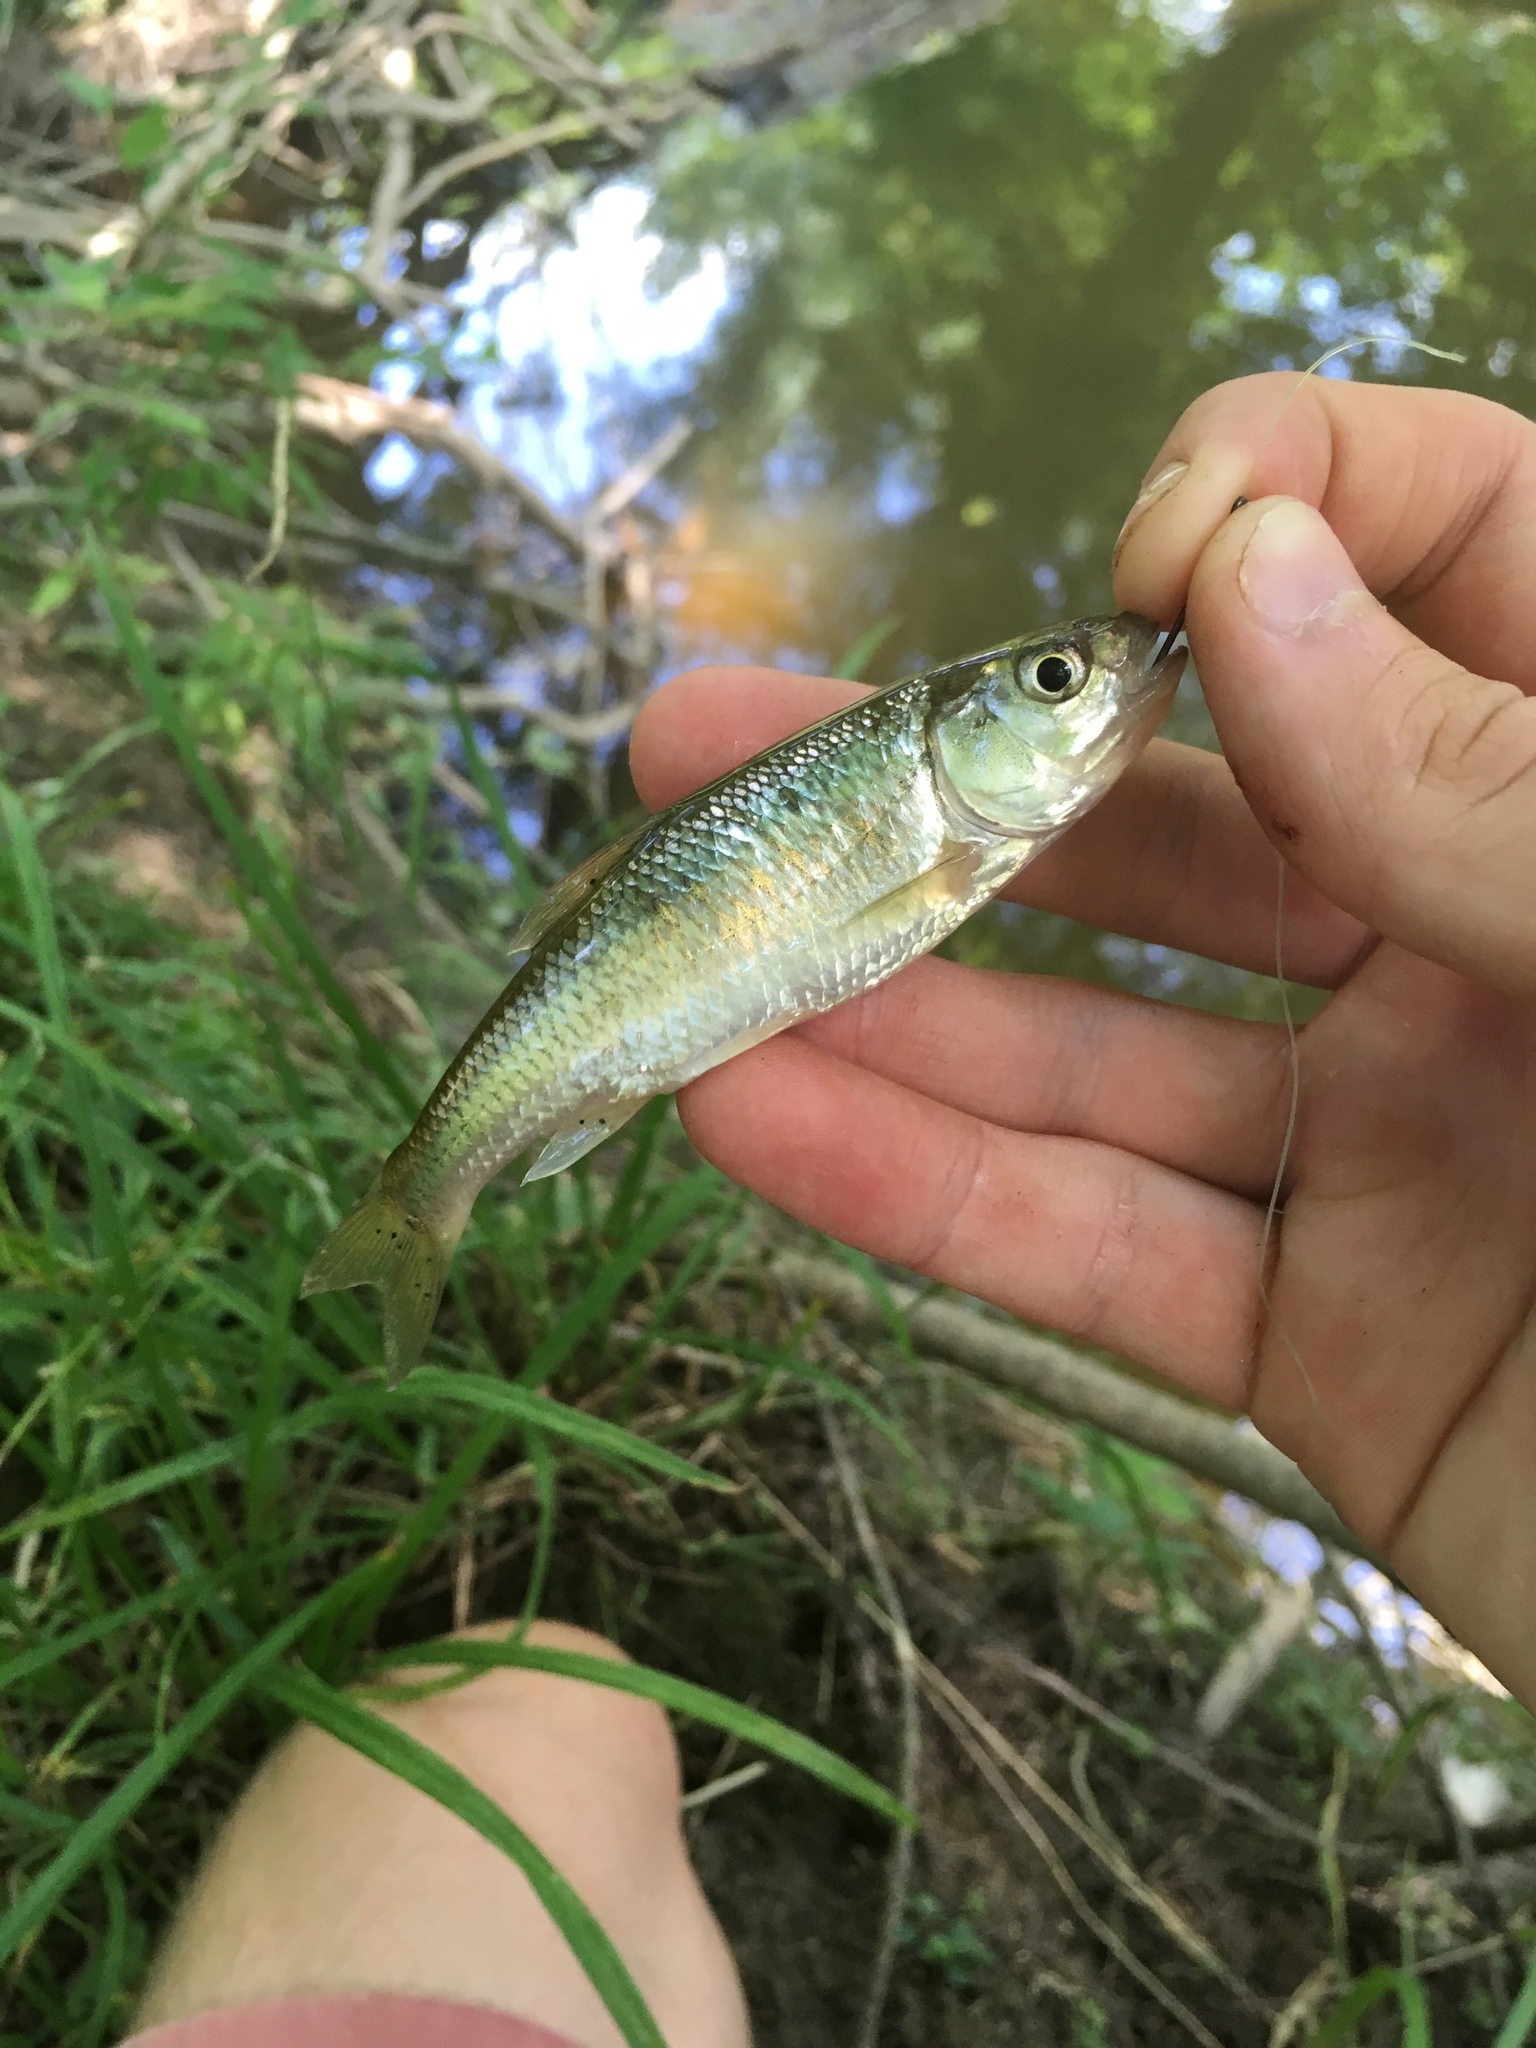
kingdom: Animalia
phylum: Chordata
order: Cypriniformes
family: Cyprinidae
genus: Luxilus
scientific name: Luxilus cornutus
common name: Common shiner
